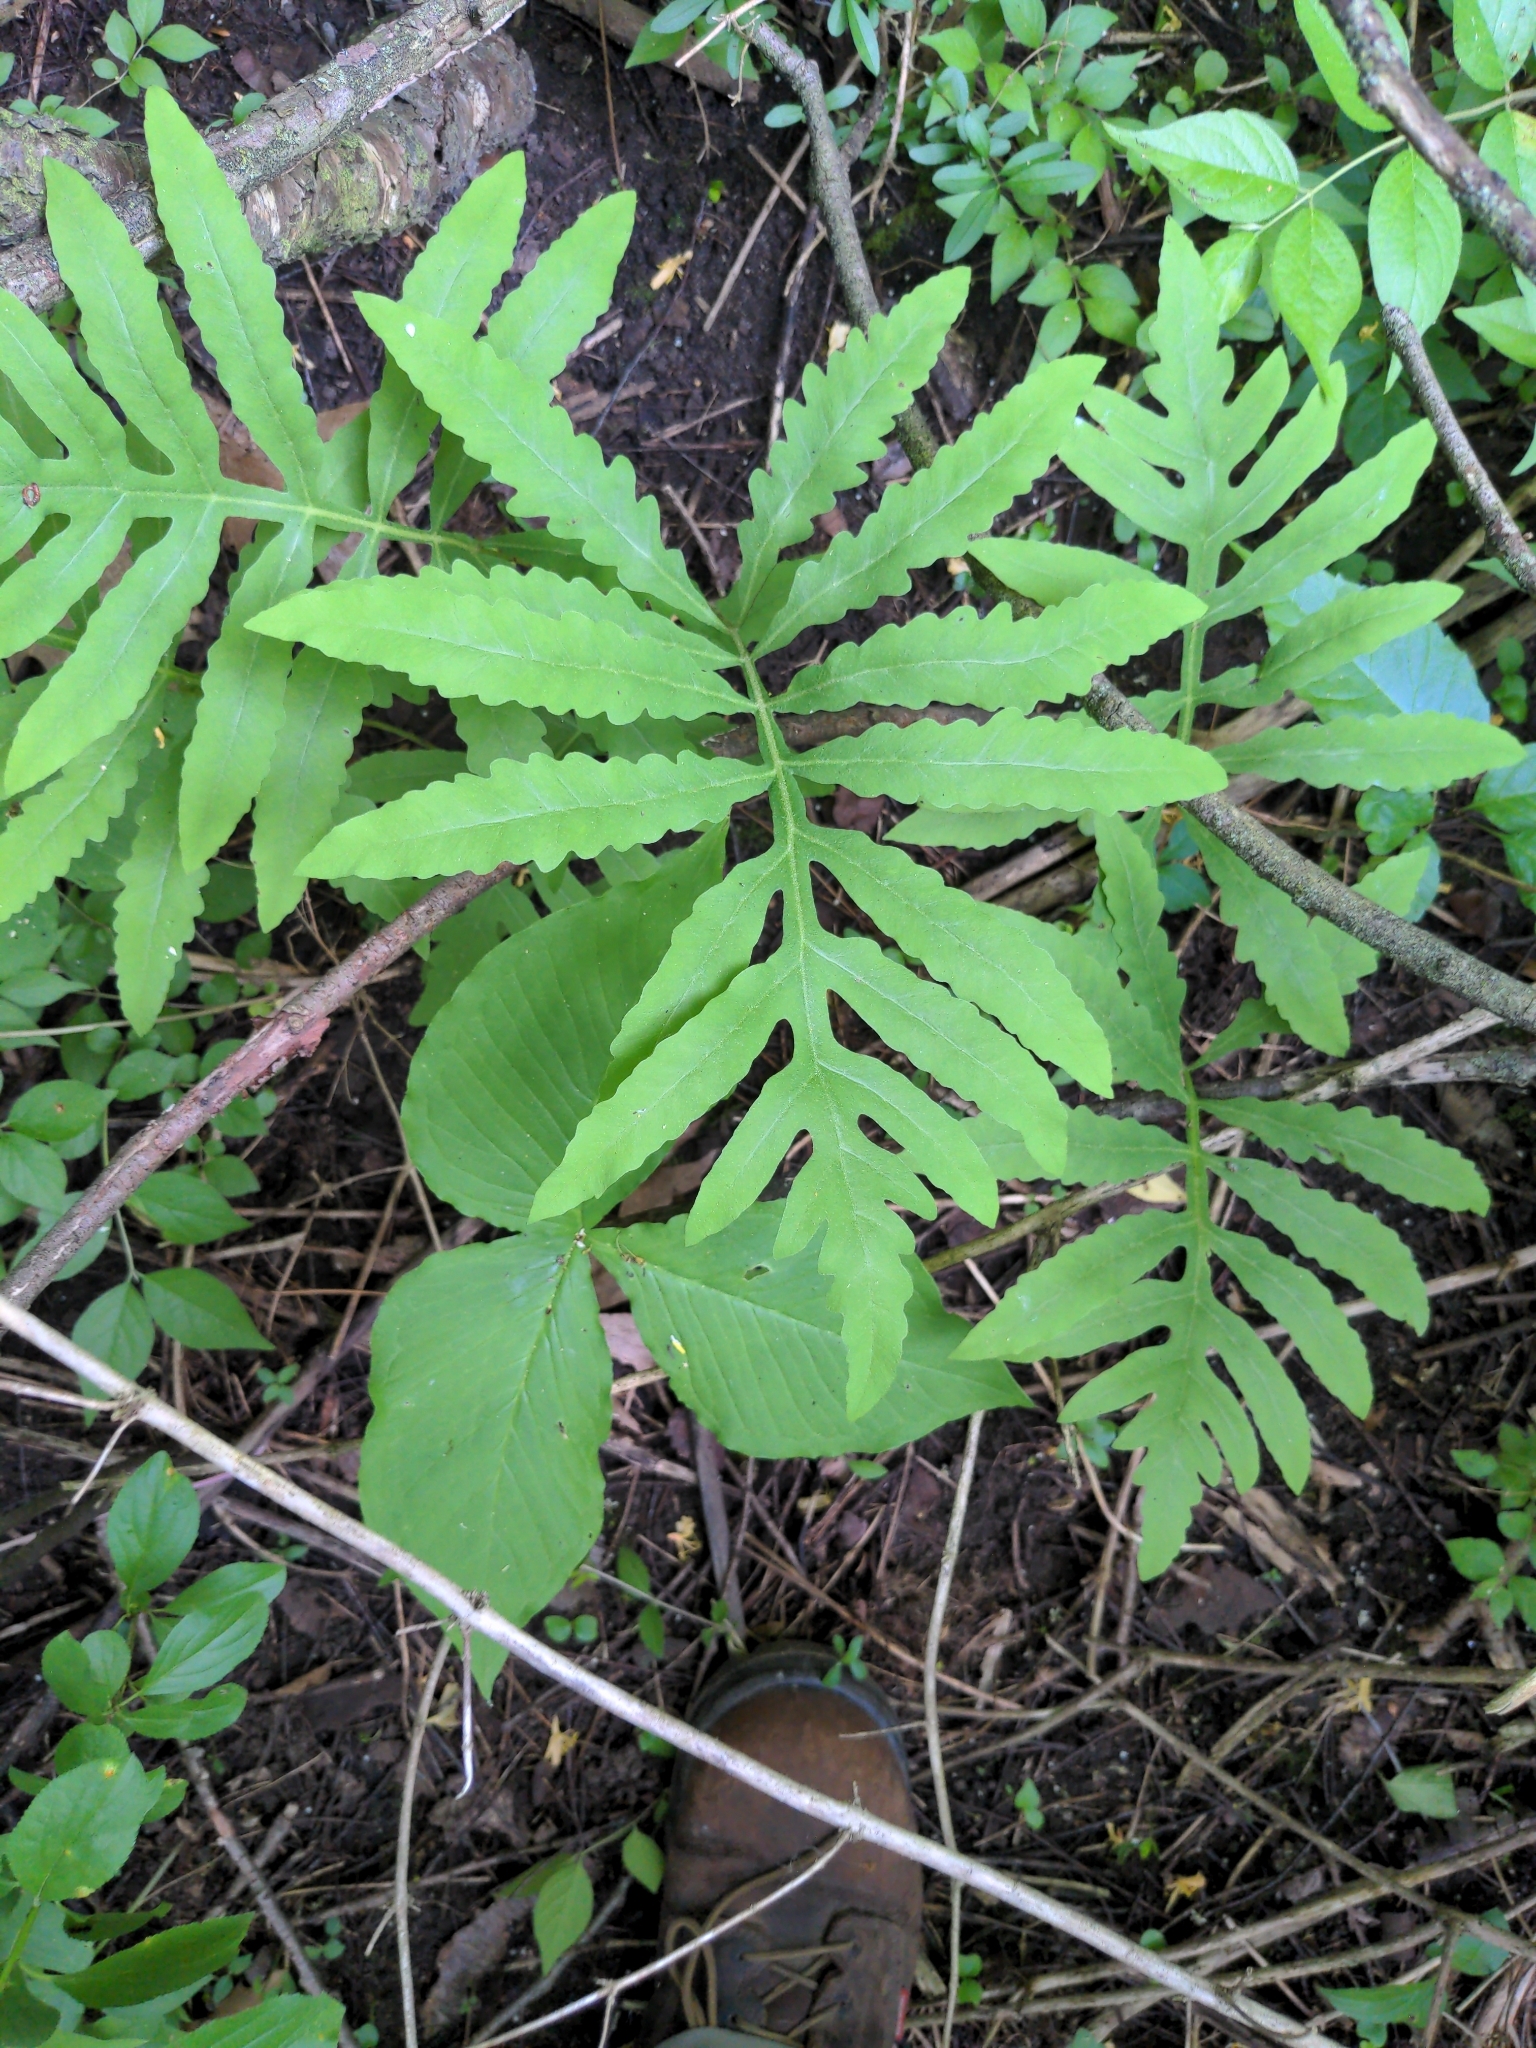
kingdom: Plantae
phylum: Tracheophyta
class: Polypodiopsida
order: Polypodiales
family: Onocleaceae
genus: Onoclea
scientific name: Onoclea sensibilis
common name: Sensitive fern
